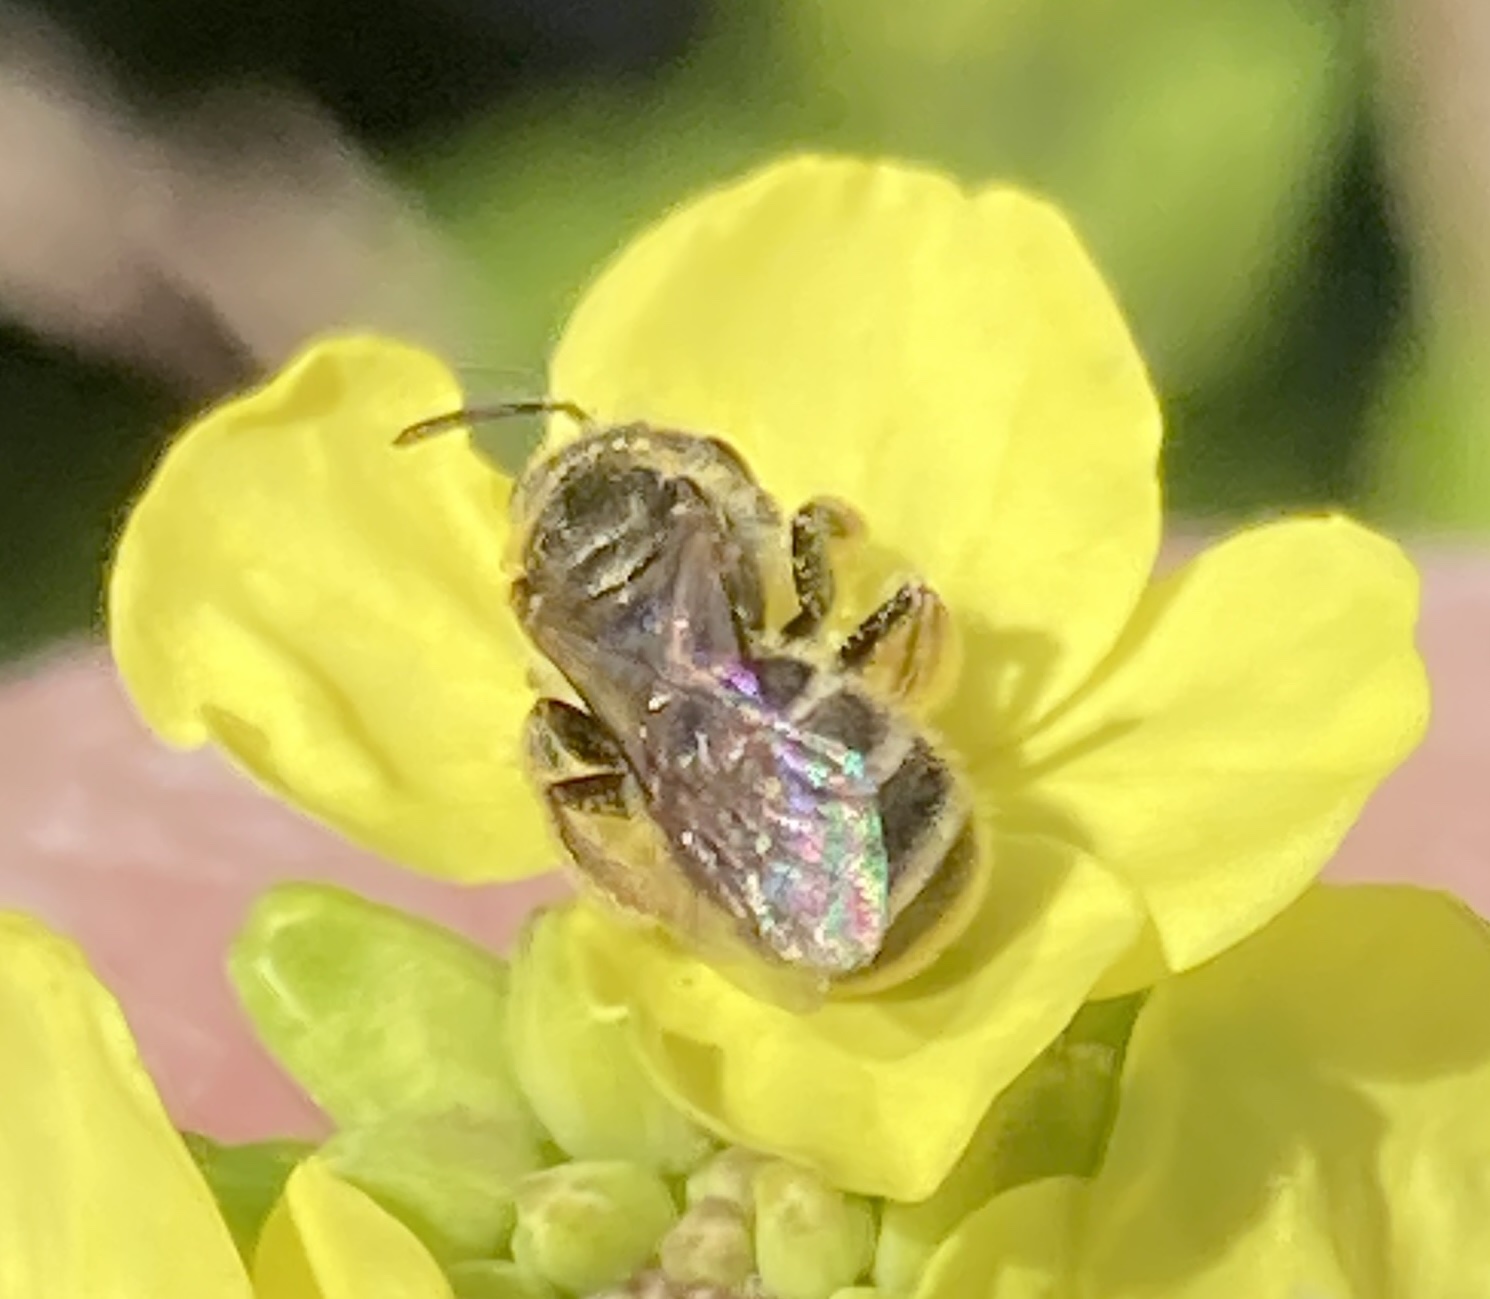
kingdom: Animalia
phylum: Arthropoda
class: Insecta
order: Hymenoptera
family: Halictidae
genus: Halictus
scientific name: Halictus tripartitus
